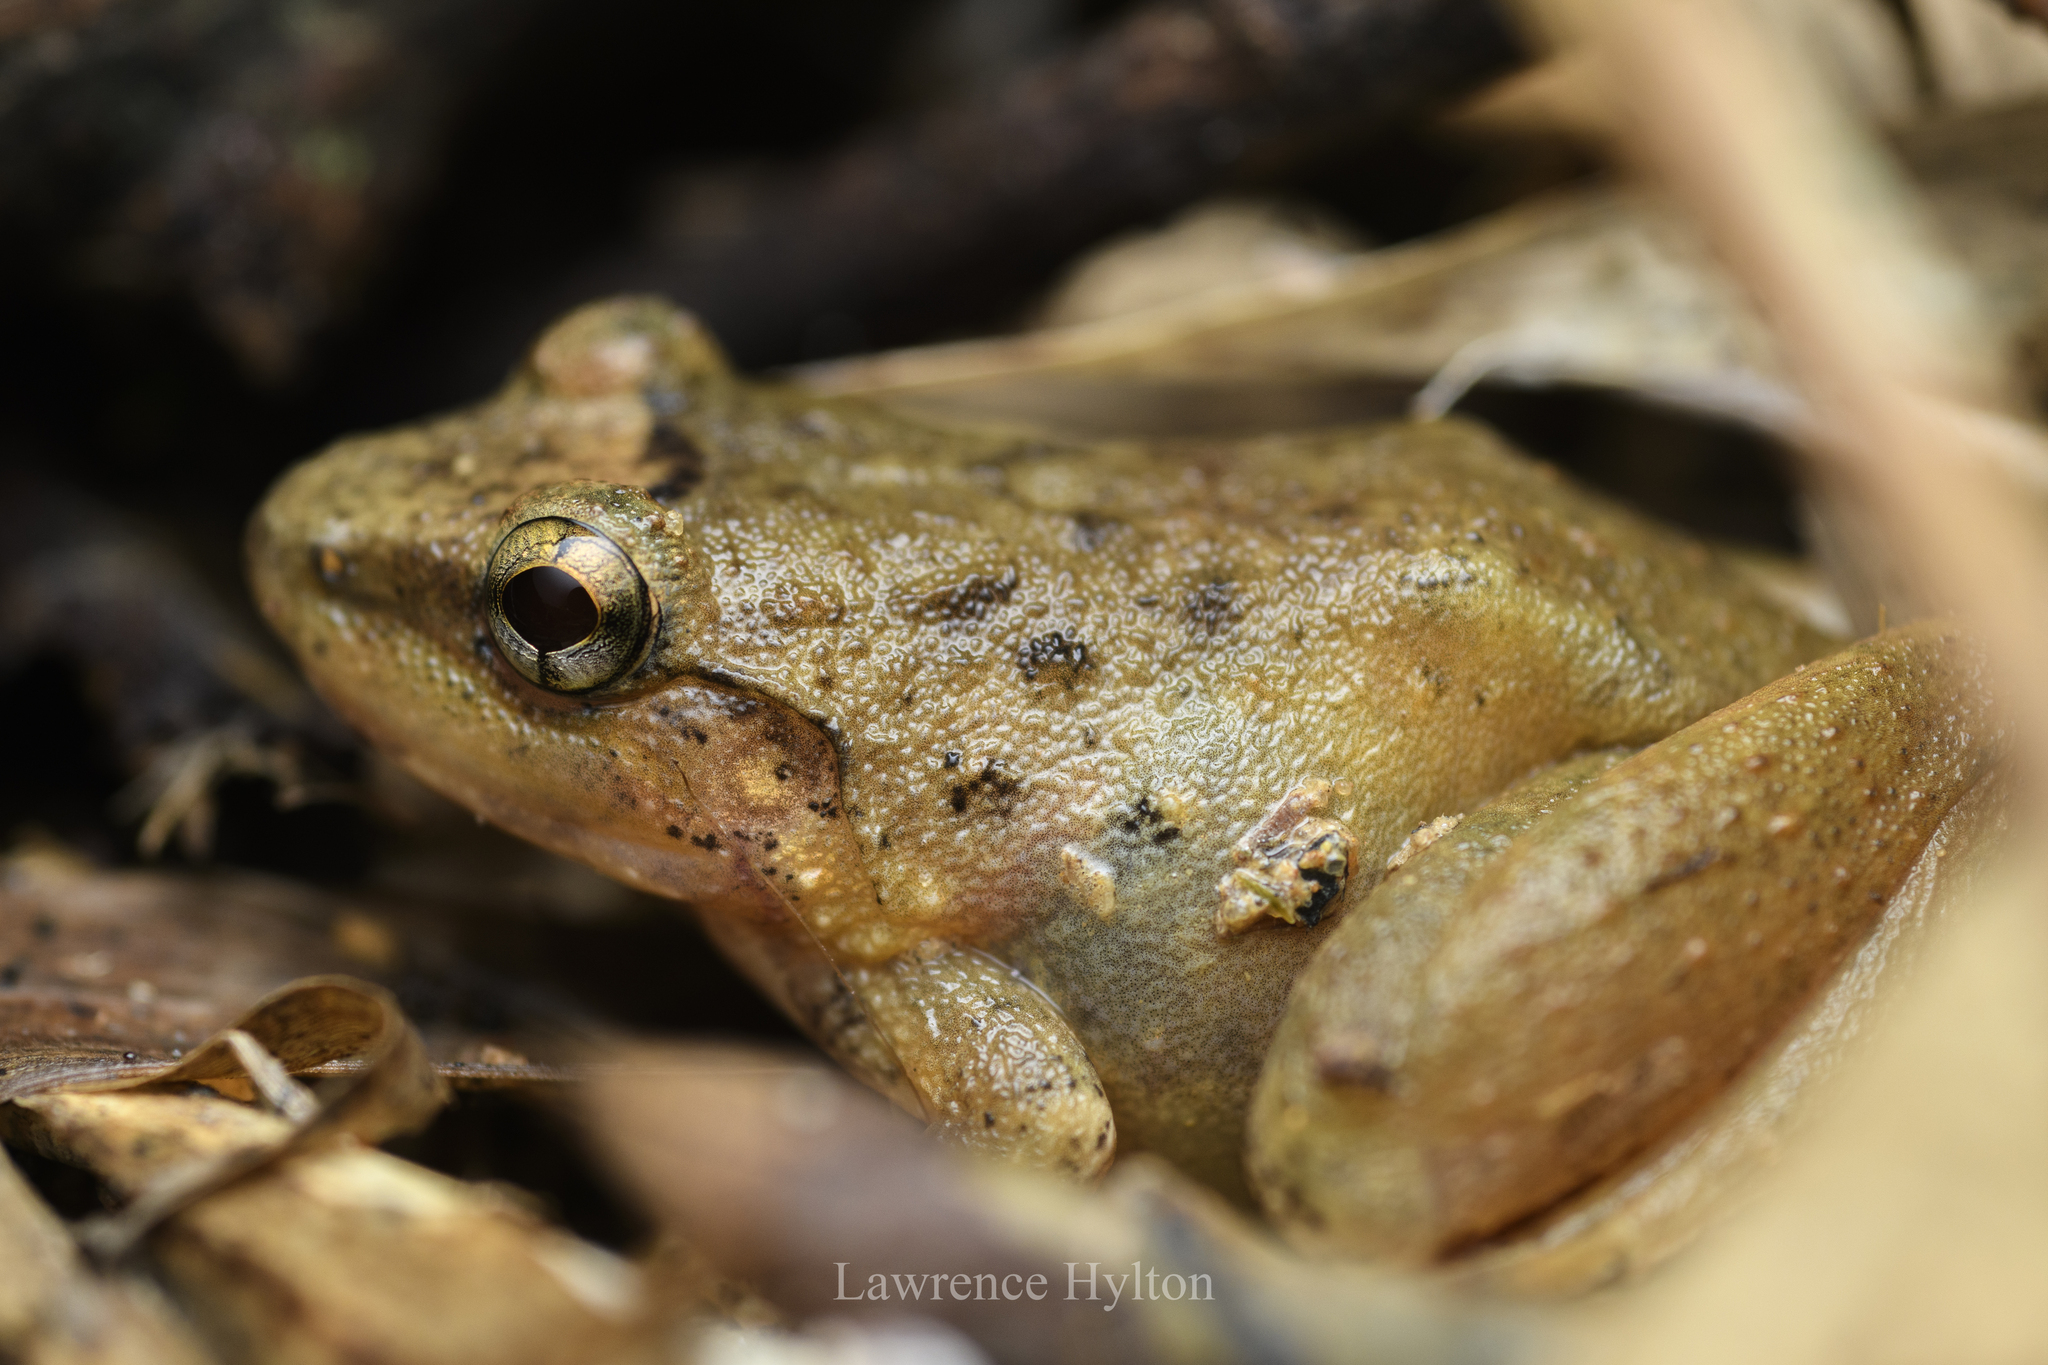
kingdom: Animalia
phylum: Chordata
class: Amphibia
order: Anura
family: Dicroglossidae
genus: Limnonectes
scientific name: Limnonectes hascheanus
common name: Hill forest frog
